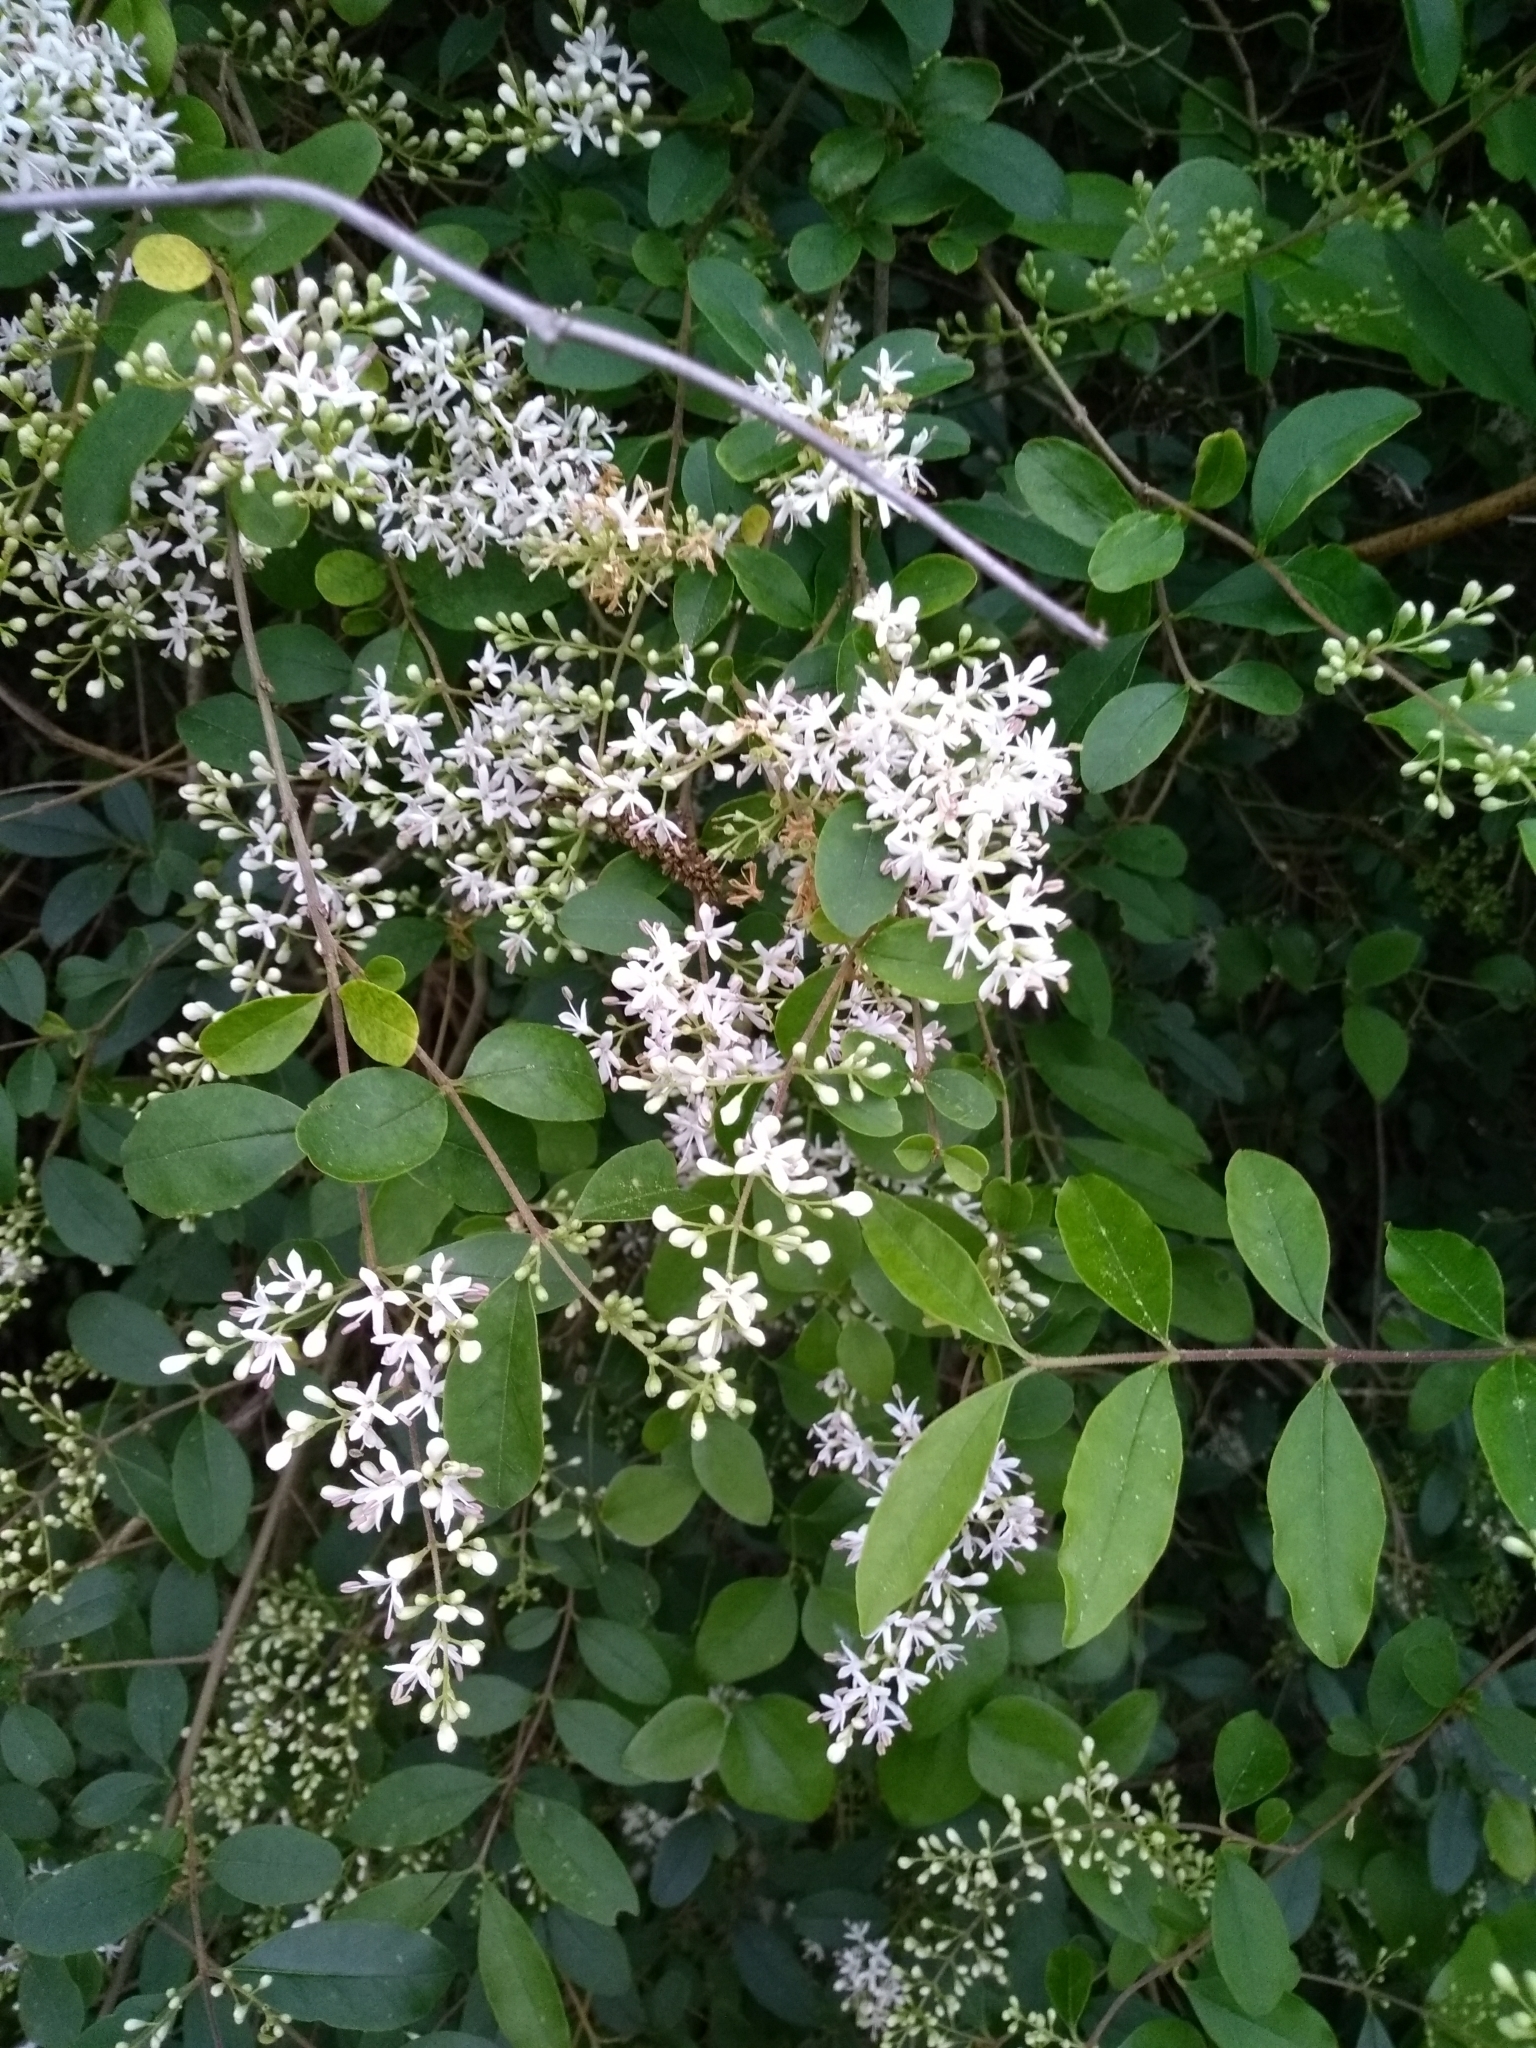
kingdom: Plantae
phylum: Tracheophyta
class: Magnoliopsida
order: Lamiales
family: Oleaceae
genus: Ligustrum
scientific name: Ligustrum sinense
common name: Chinese privet
